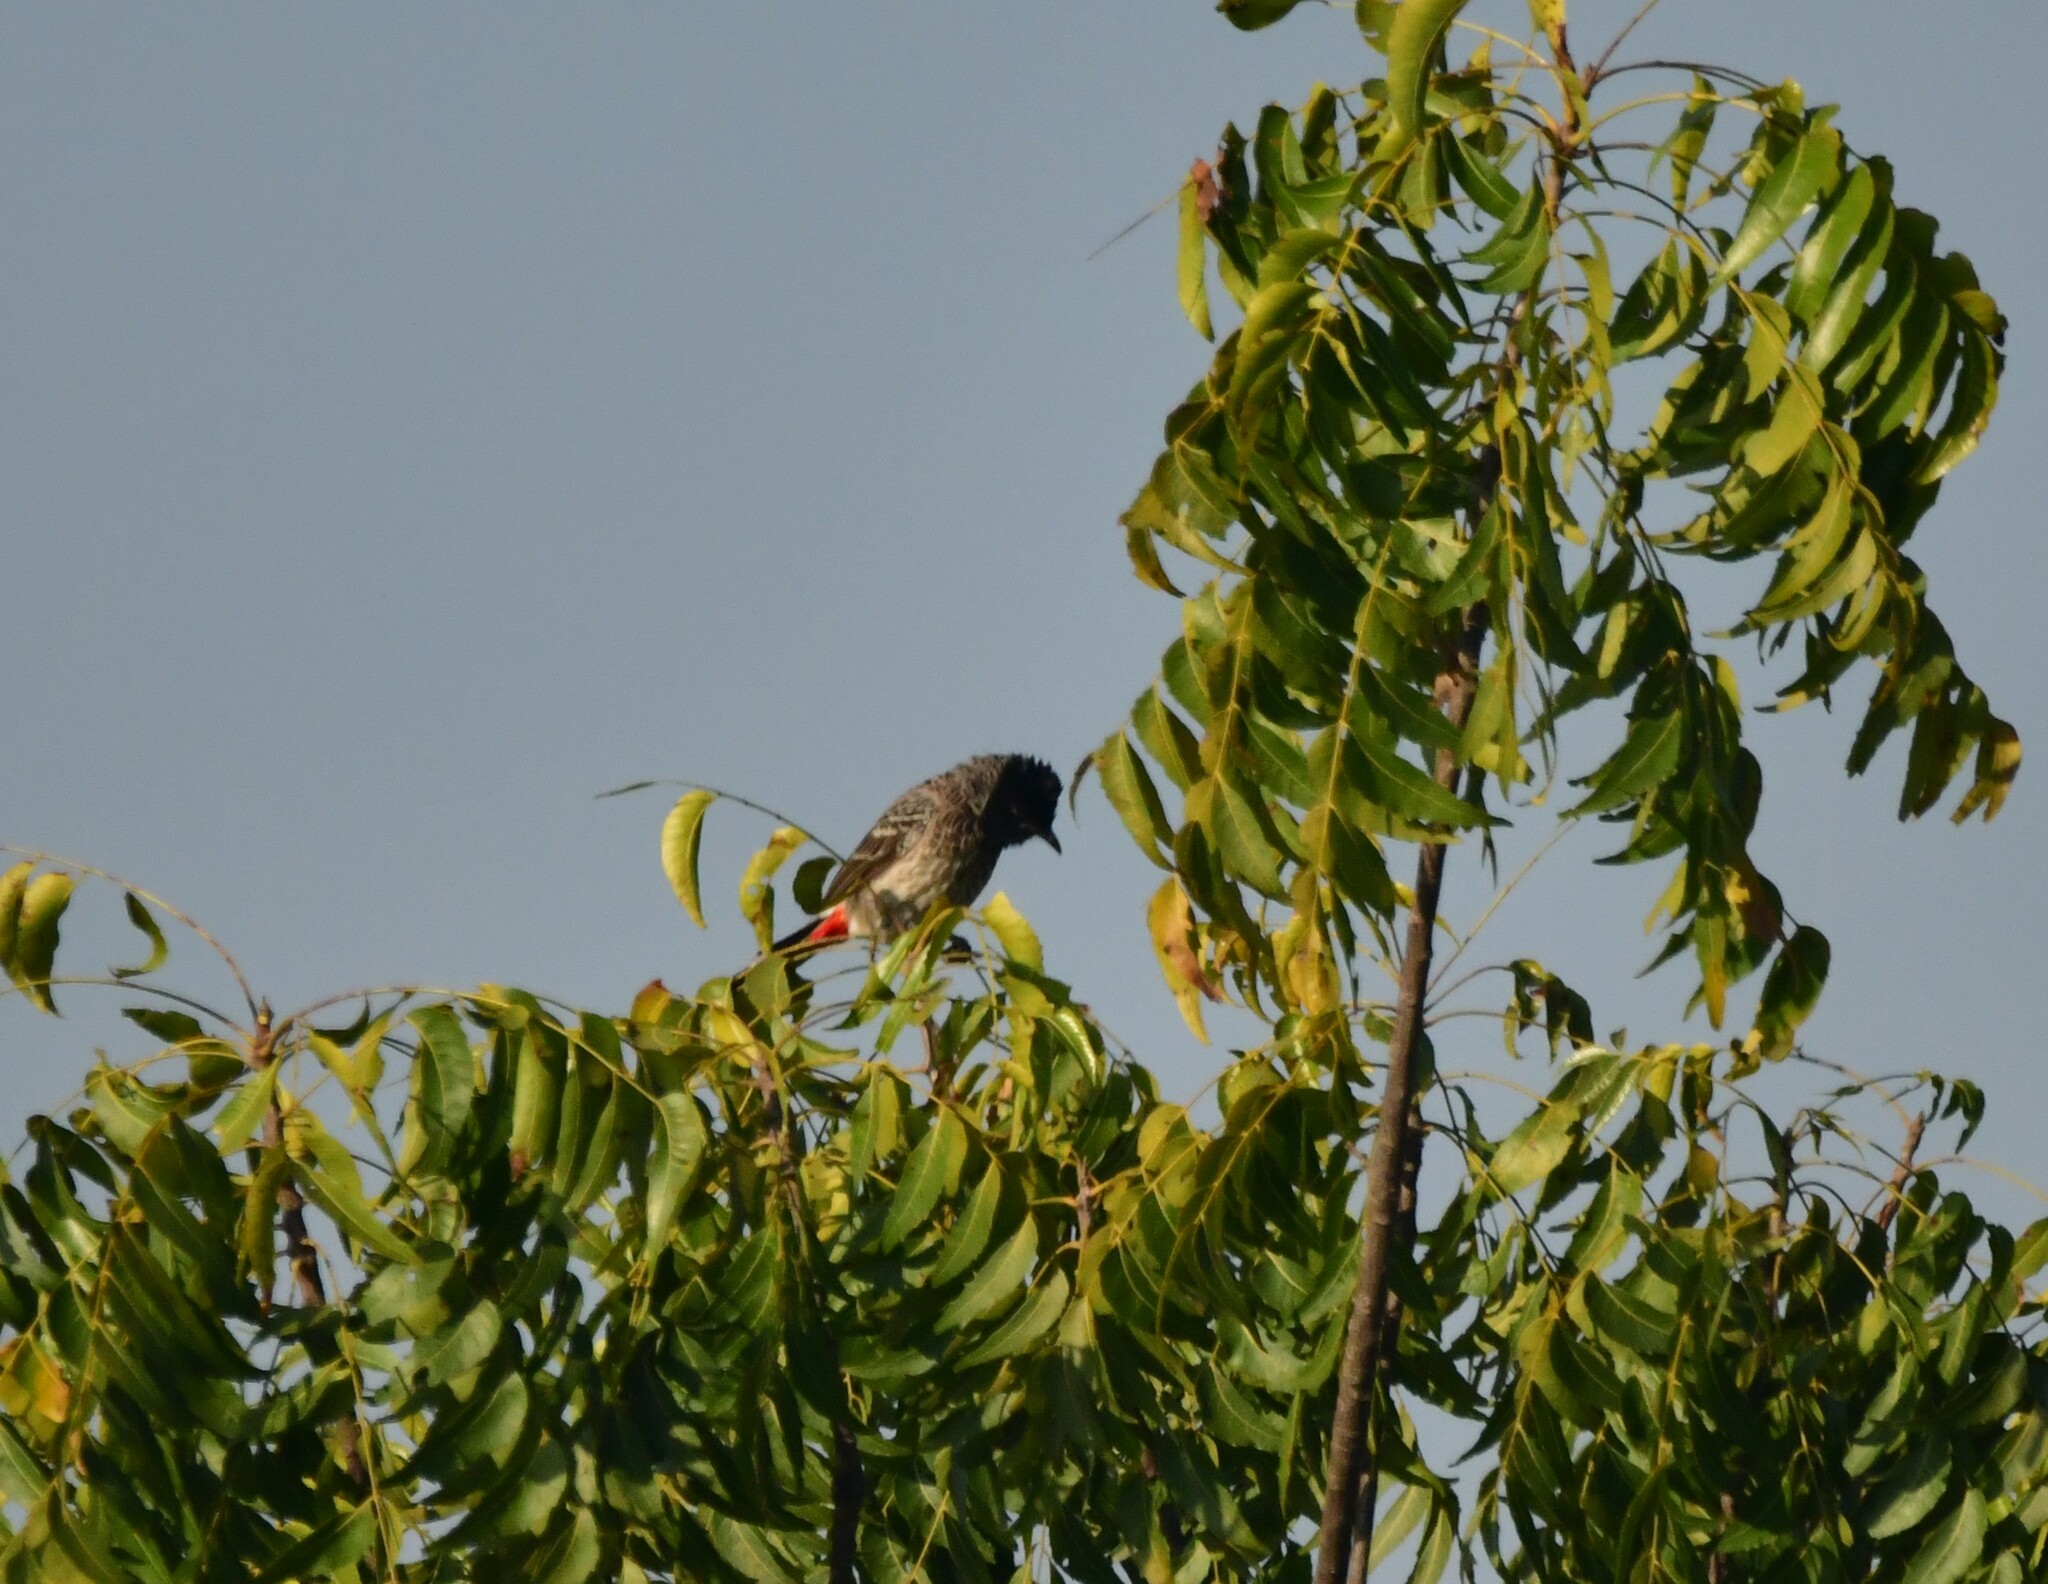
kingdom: Animalia
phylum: Chordata
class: Aves
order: Passeriformes
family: Pycnonotidae
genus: Pycnonotus
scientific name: Pycnonotus cafer
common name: Red-vented bulbul
